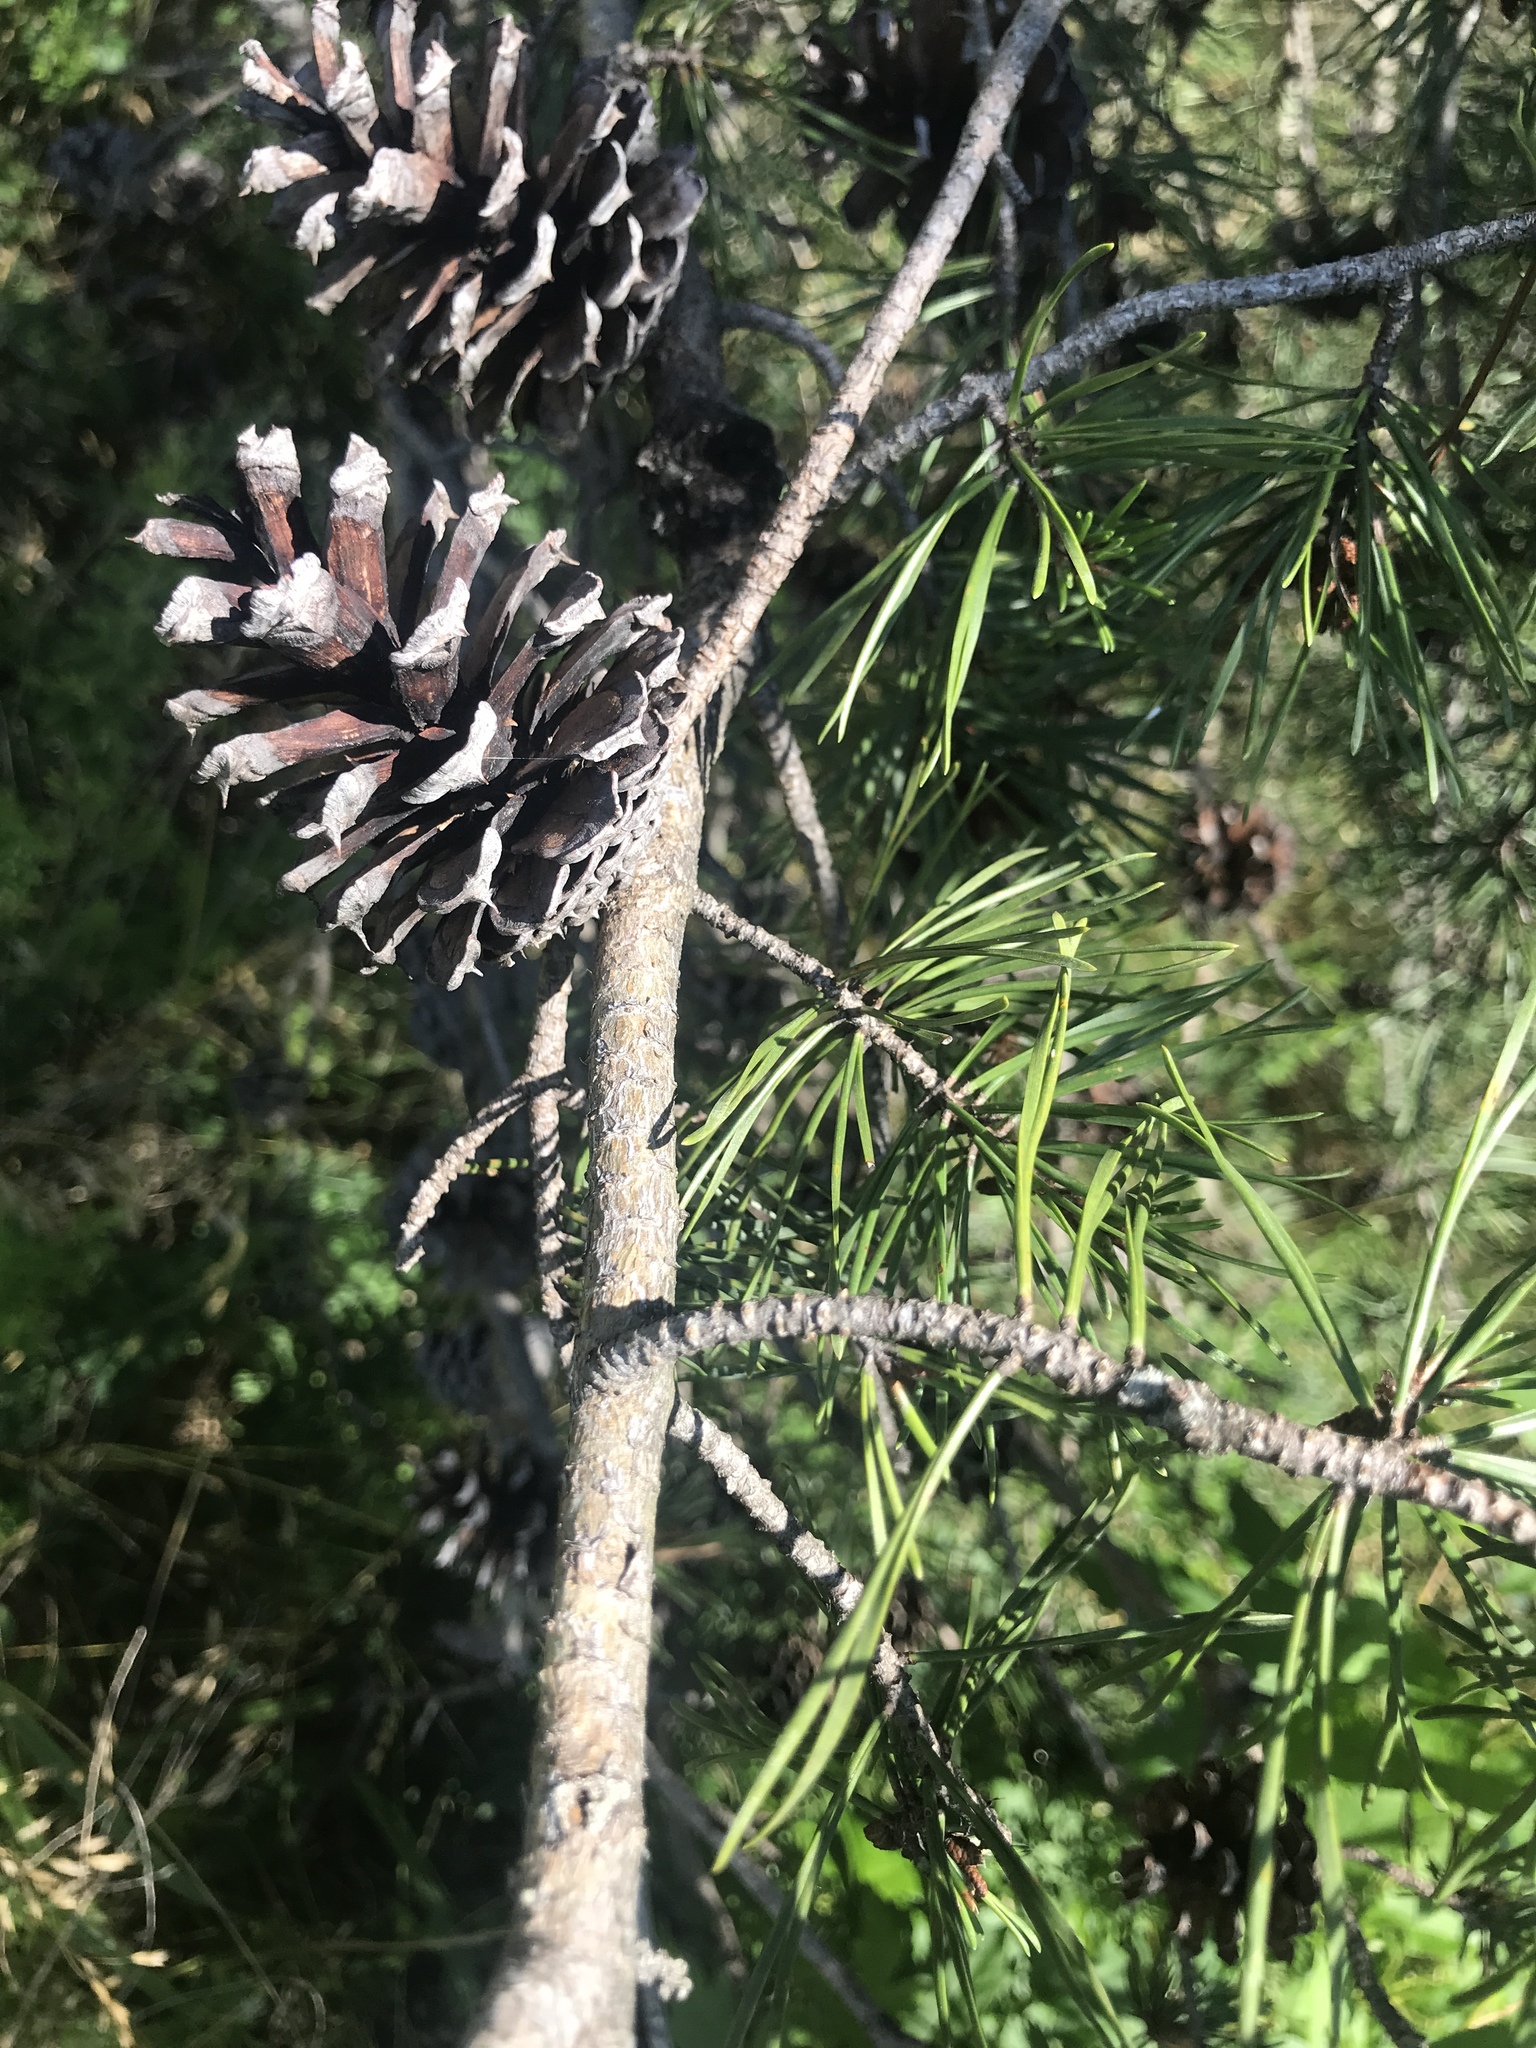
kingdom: Plantae
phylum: Tracheophyta
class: Pinopsida
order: Pinales
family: Pinaceae
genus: Pinus
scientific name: Pinus virginiana
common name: Scrub pine
